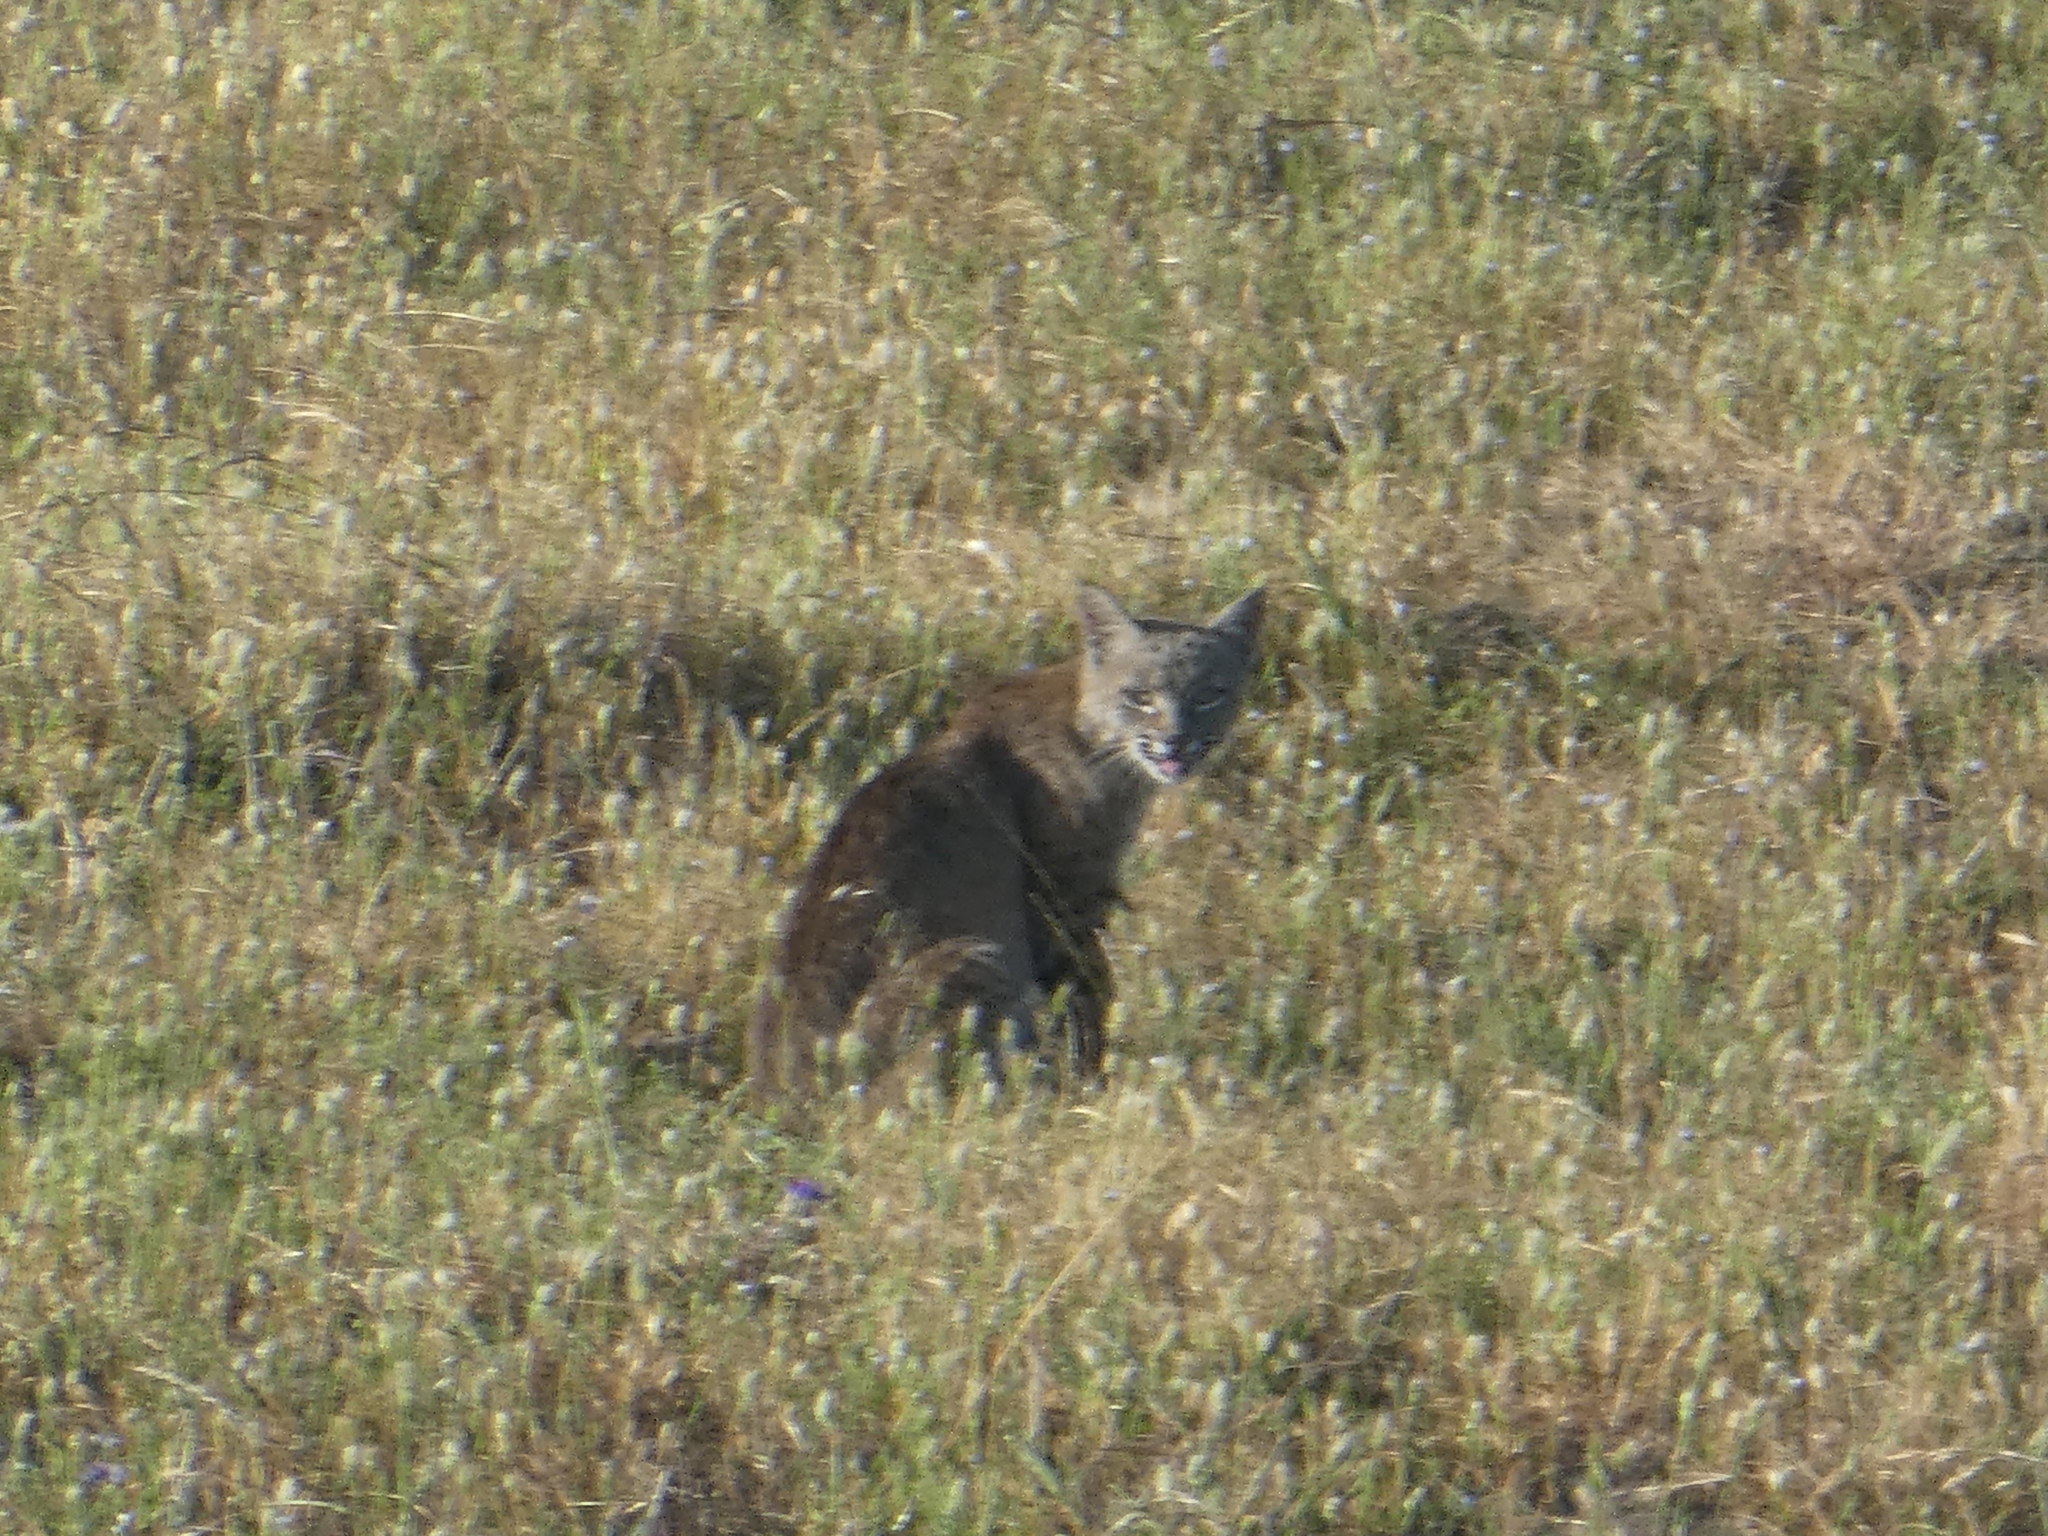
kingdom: Animalia
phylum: Chordata
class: Mammalia
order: Carnivora
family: Felidae
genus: Lynx
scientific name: Lynx rufus
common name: Bobcat
